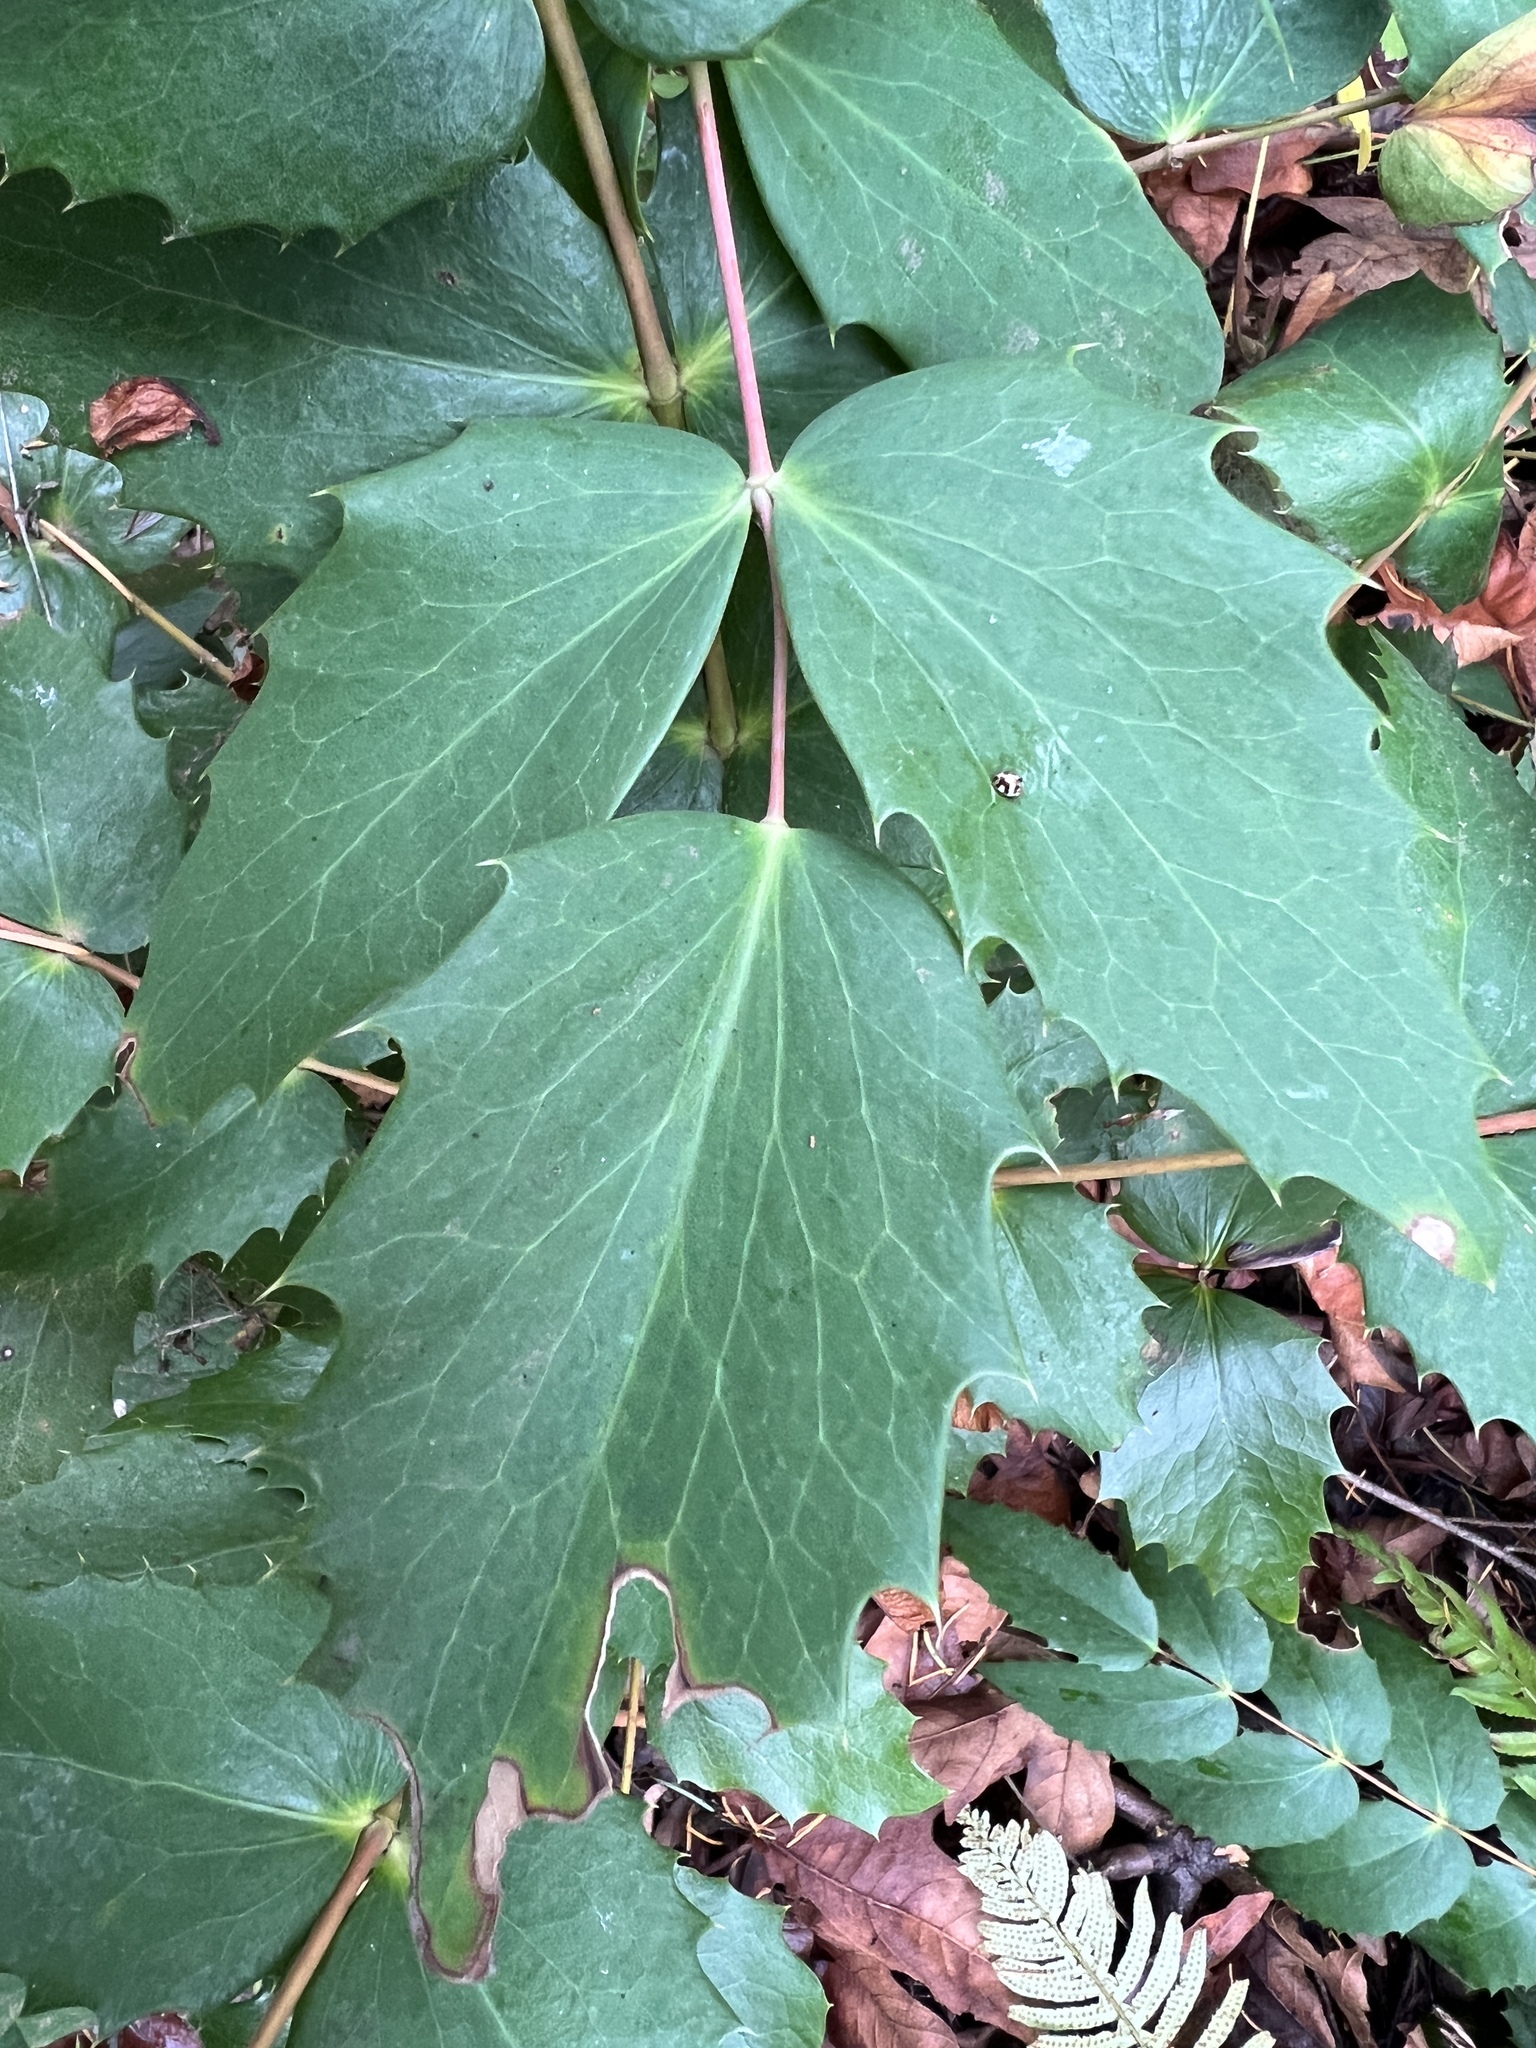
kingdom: Plantae
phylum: Tracheophyta
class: Magnoliopsida
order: Ranunculales
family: Berberidaceae
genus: Mahonia
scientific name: Mahonia nervosa
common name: Cascade oregon-grape
